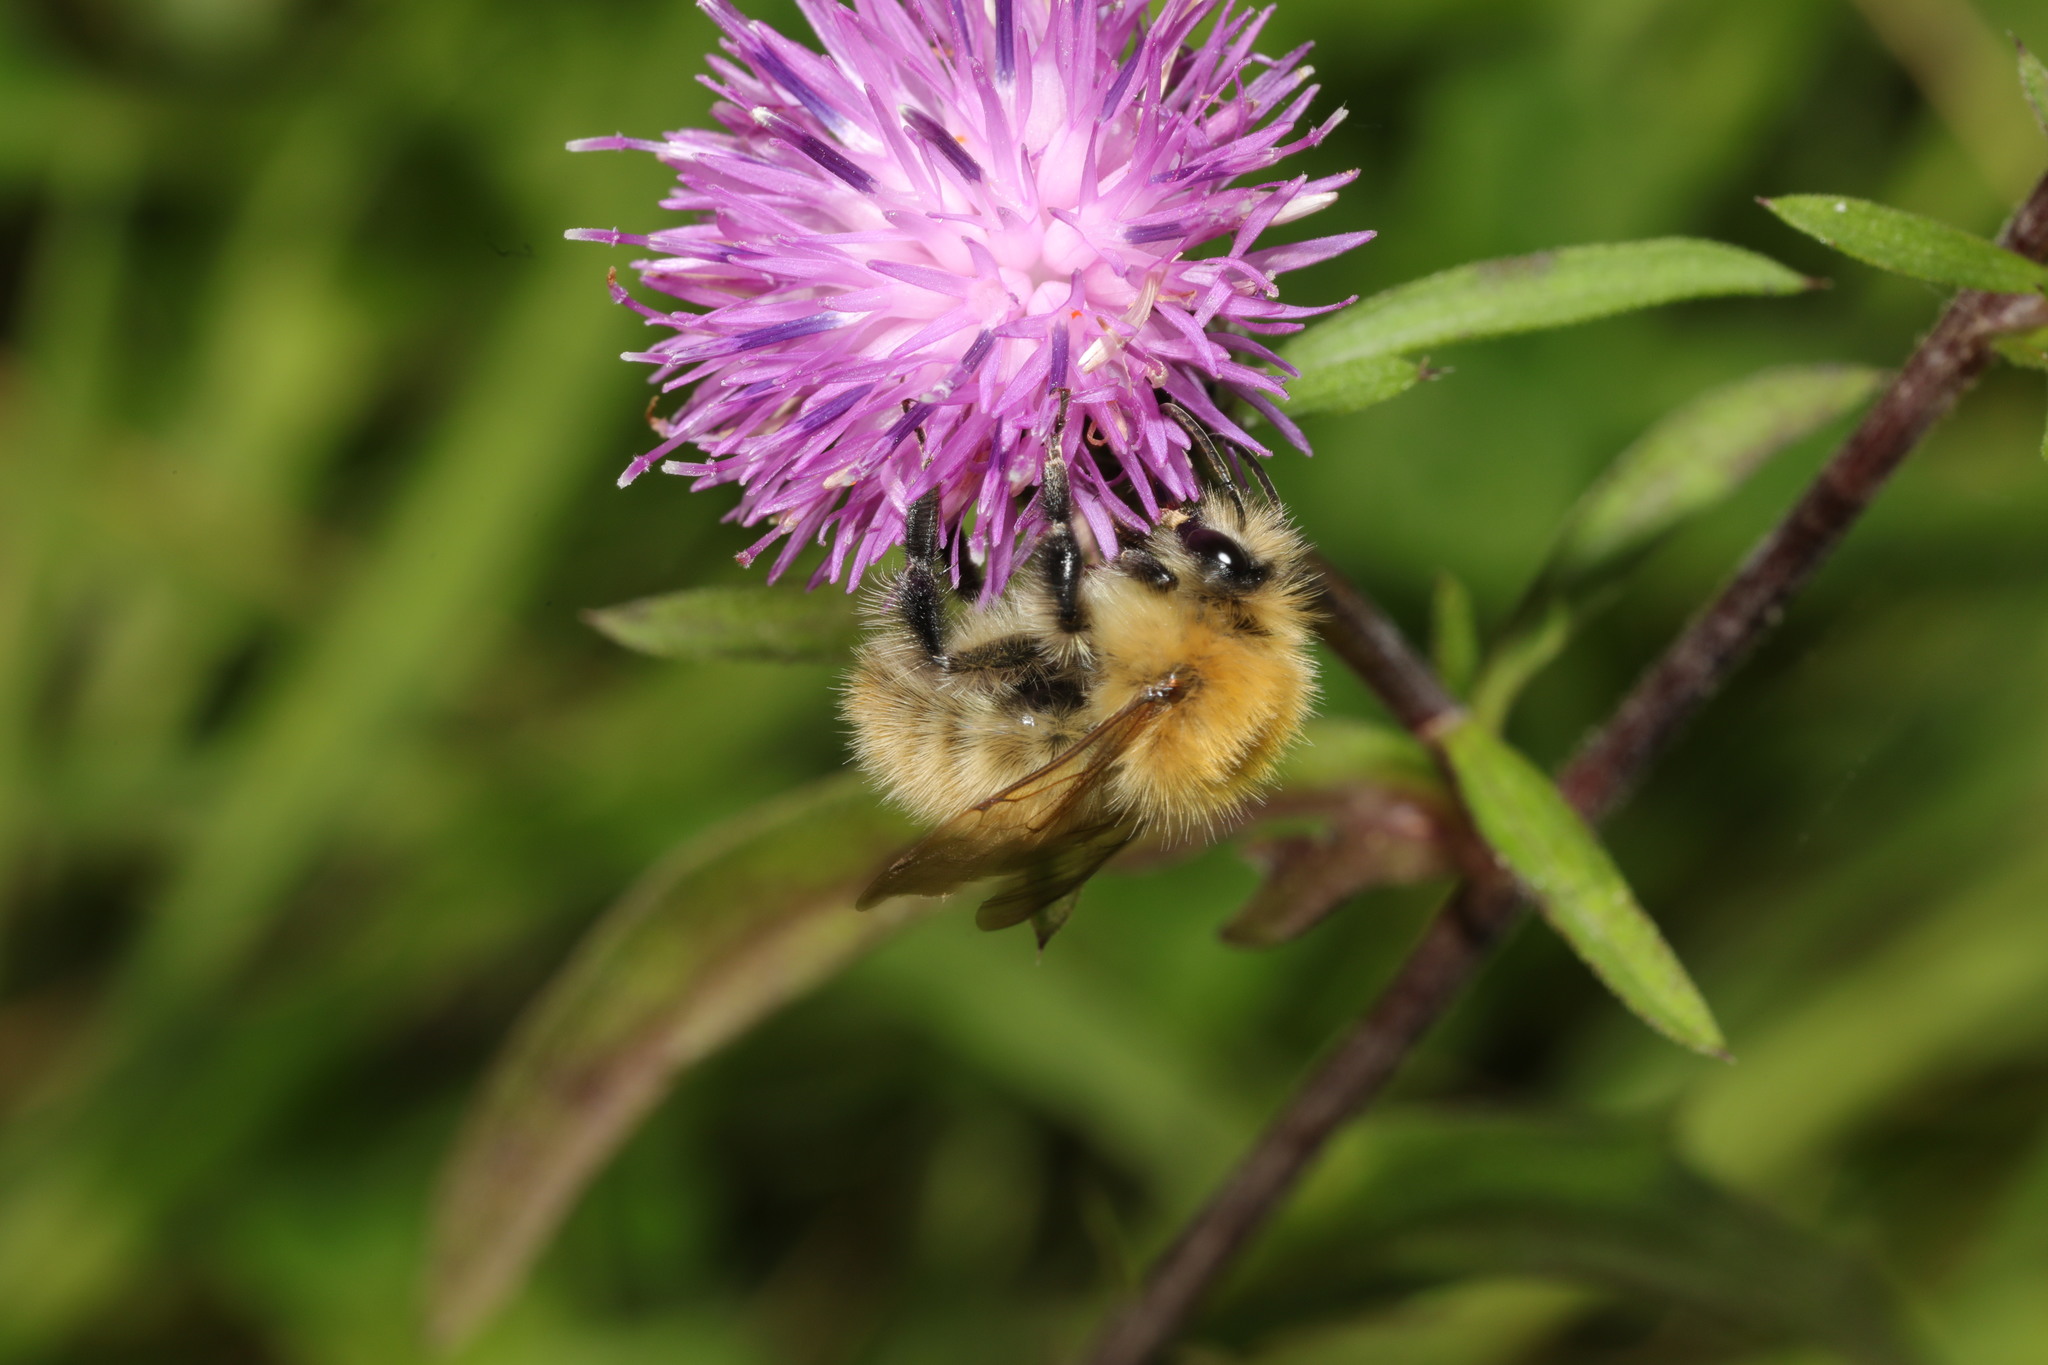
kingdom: Animalia
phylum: Arthropoda
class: Insecta
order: Hymenoptera
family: Apidae
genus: Bombus
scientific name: Bombus pascuorum
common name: Common carder bee
